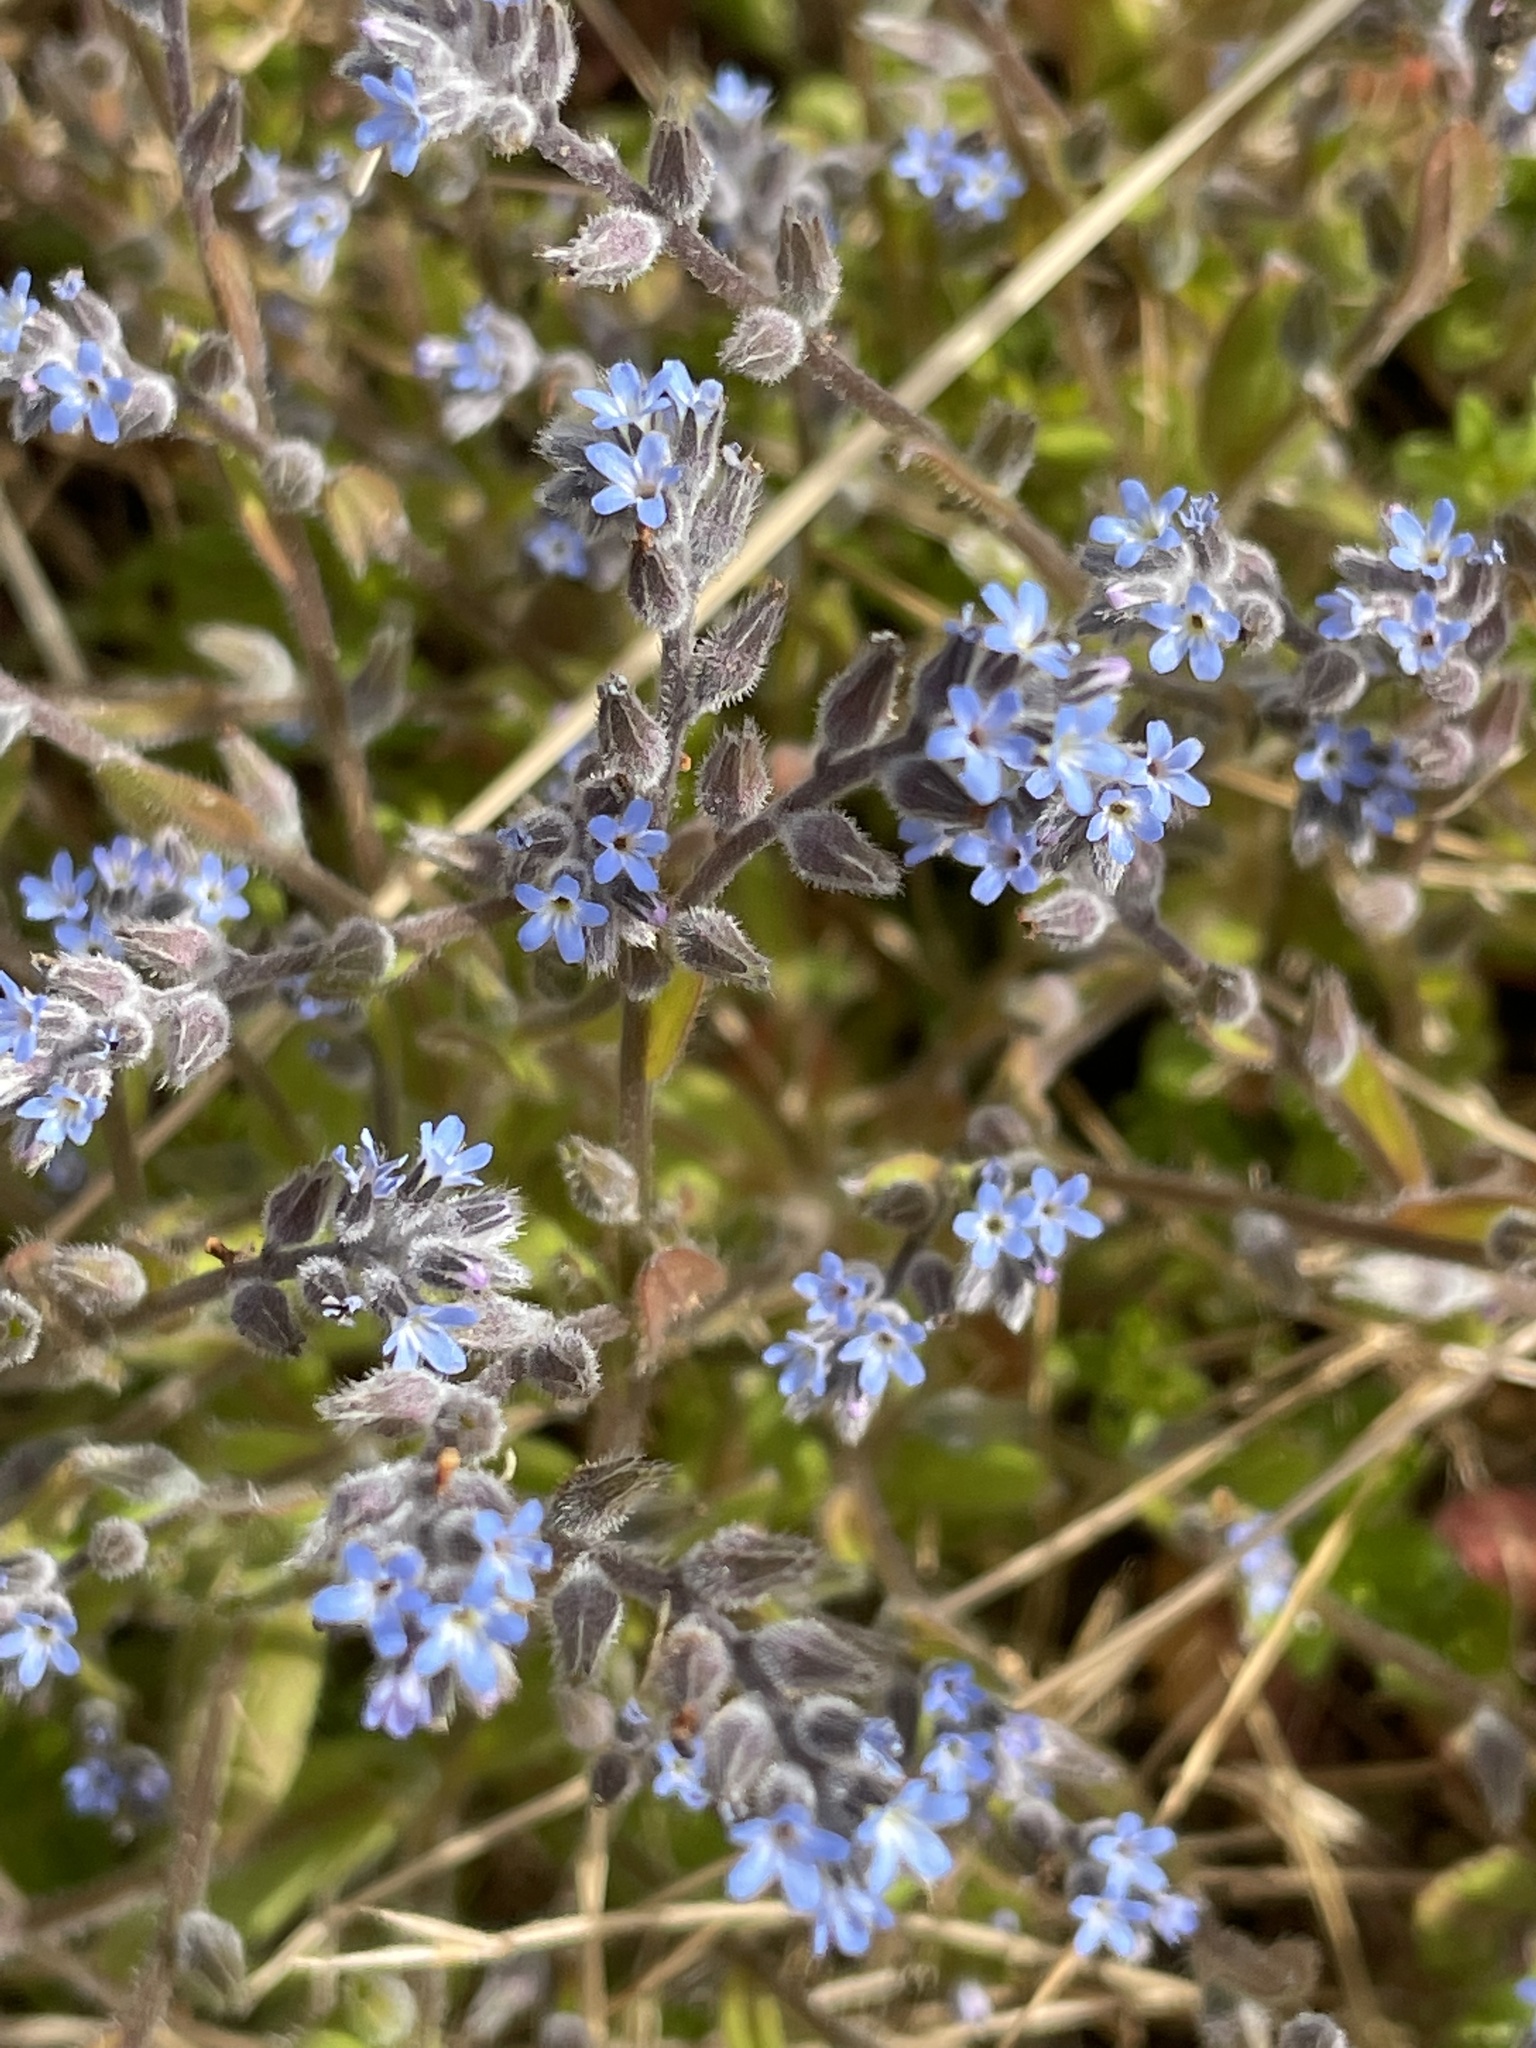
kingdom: Plantae
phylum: Tracheophyta
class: Magnoliopsida
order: Boraginales
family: Boraginaceae
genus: Myosotis
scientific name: Myosotis stricta
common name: Strict forget-me-not
